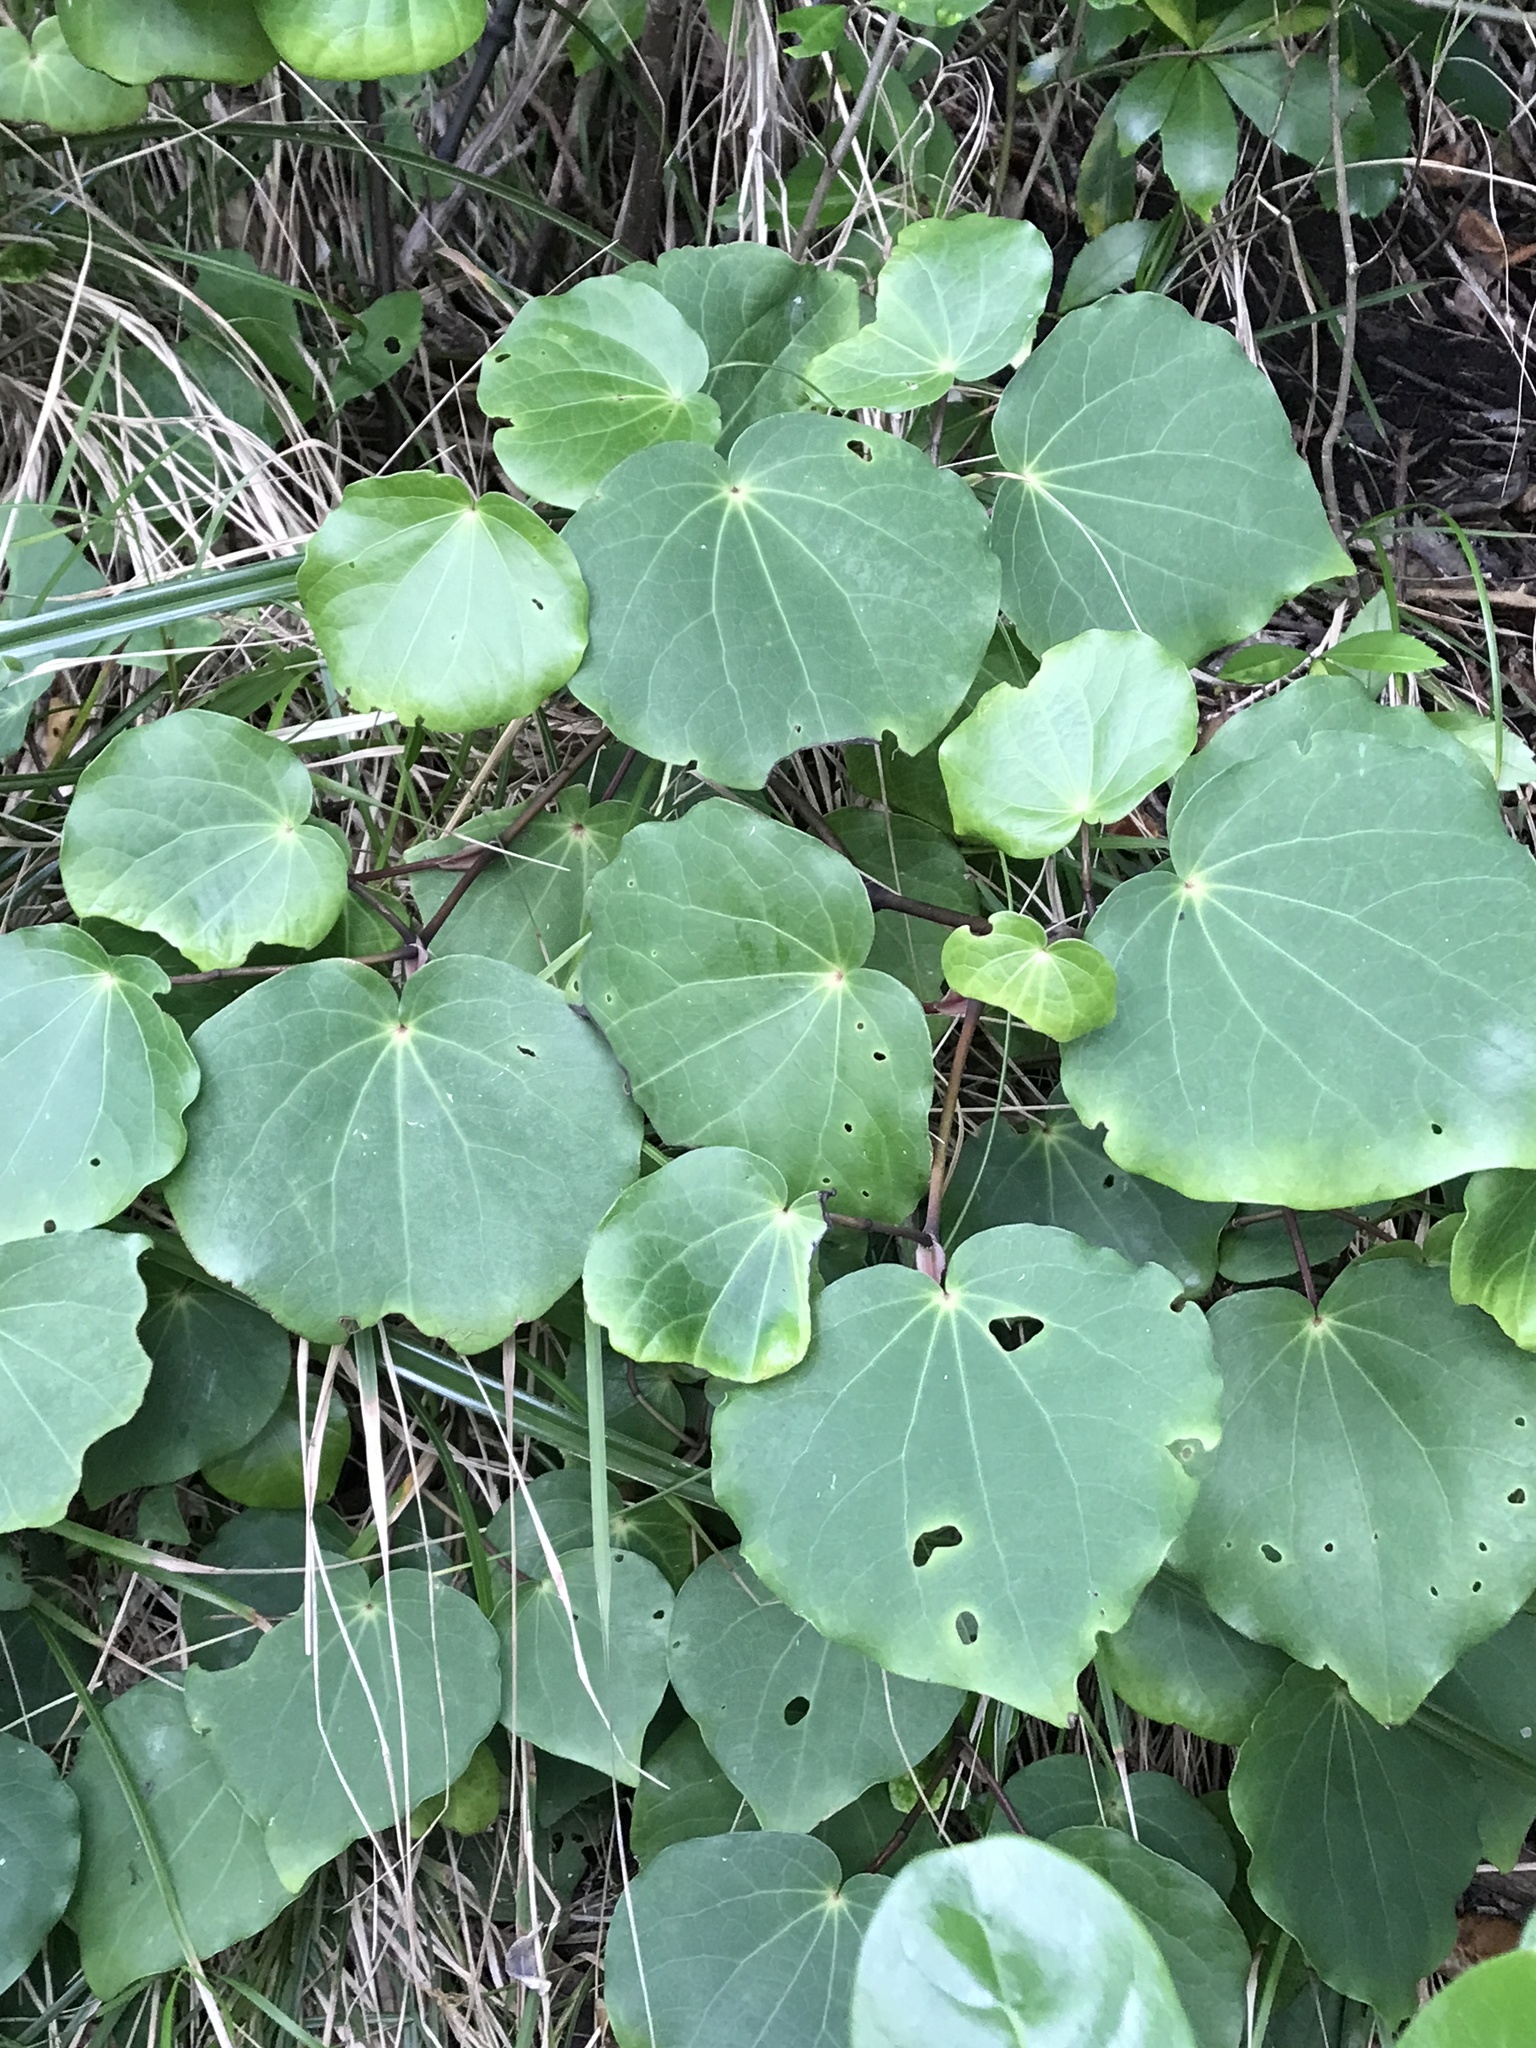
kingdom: Plantae
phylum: Tracheophyta
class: Magnoliopsida
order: Piperales
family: Piperaceae
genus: Macropiper
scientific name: Macropiper excelsum
